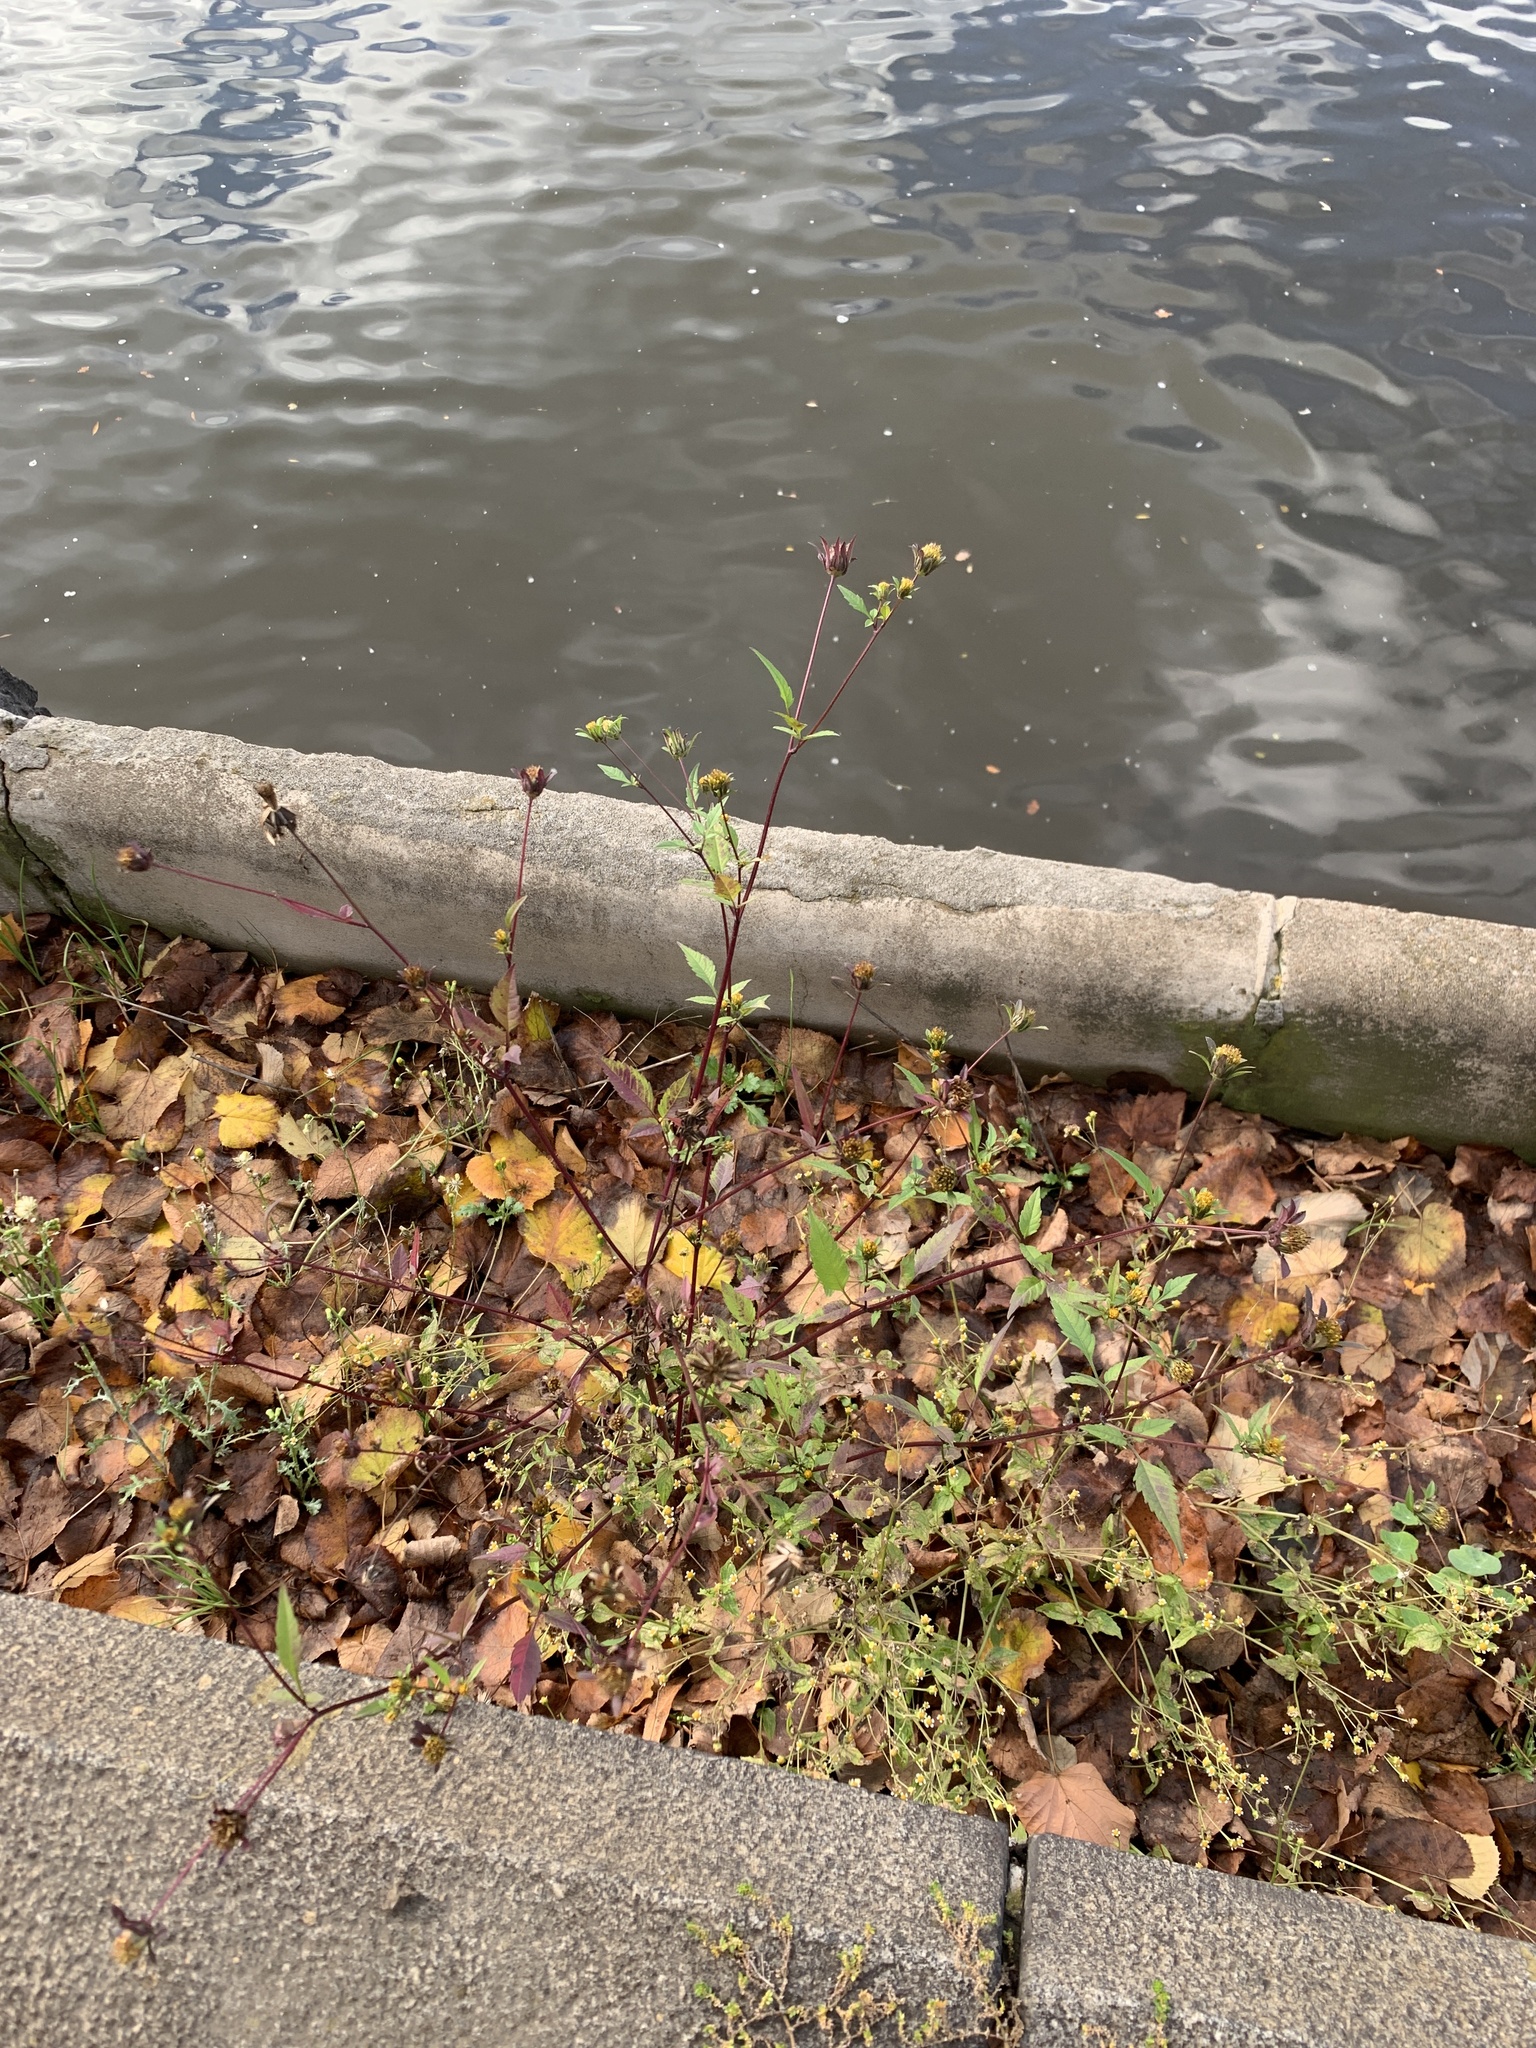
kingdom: Plantae
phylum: Tracheophyta
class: Magnoliopsida
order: Asterales
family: Asteraceae
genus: Bidens
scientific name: Bidens frondosa
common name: Beggarticks
